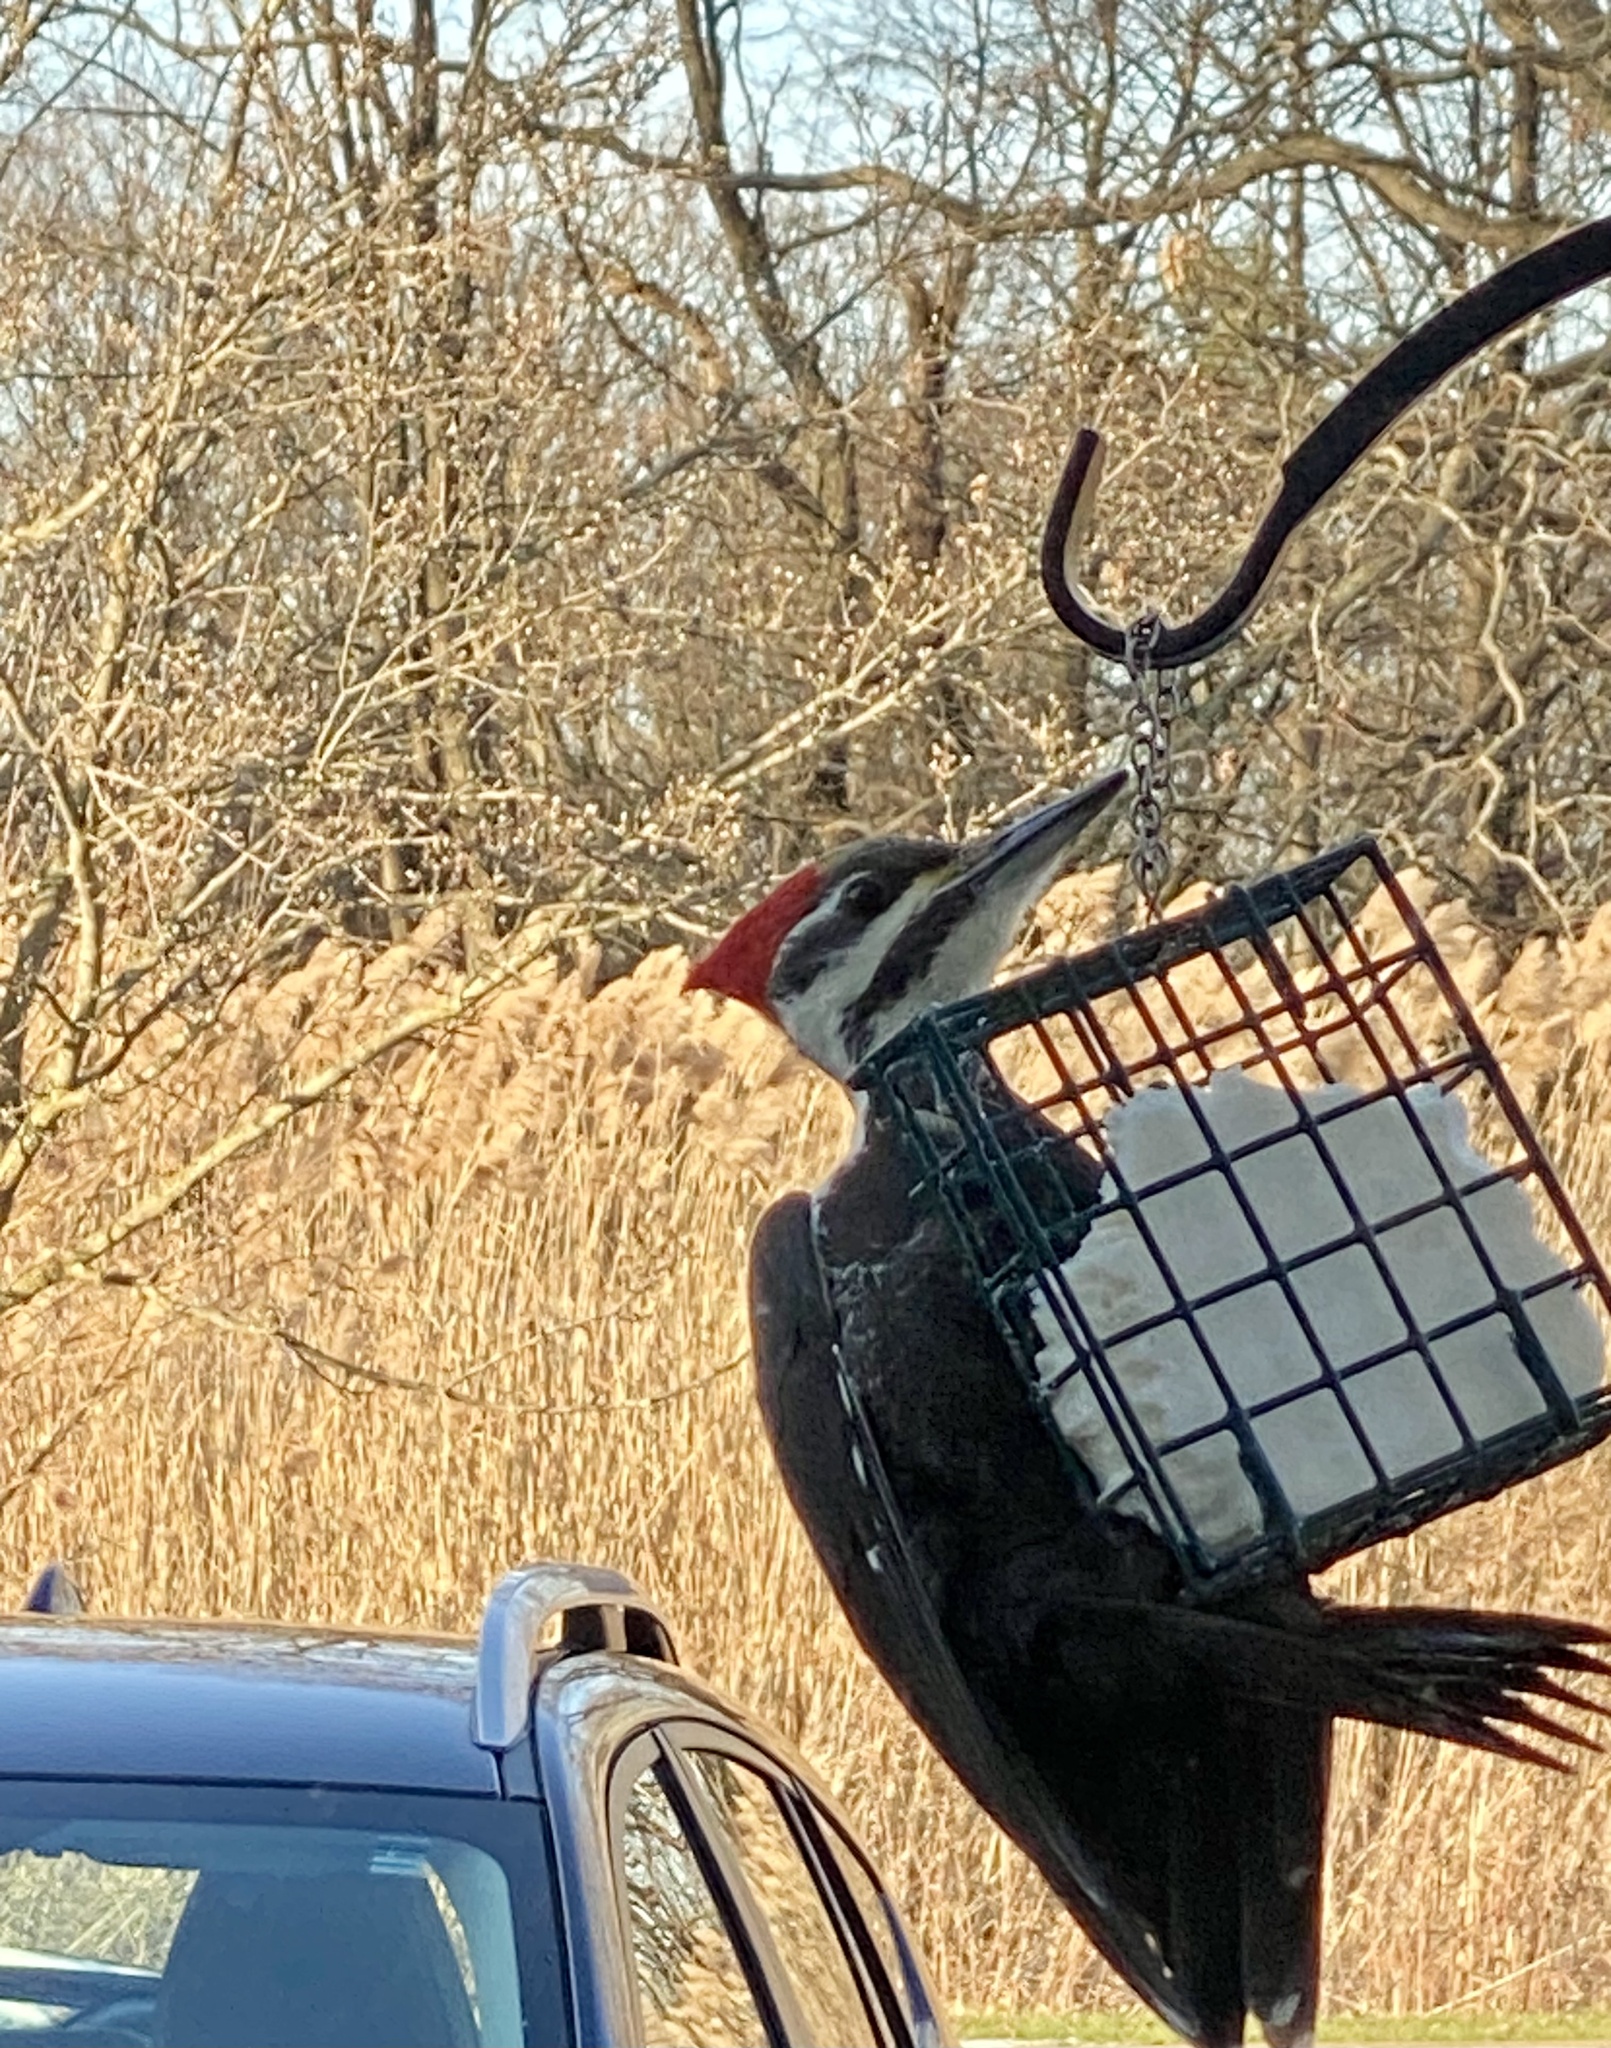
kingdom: Animalia
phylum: Chordata
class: Aves
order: Piciformes
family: Picidae
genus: Dryocopus
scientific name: Dryocopus pileatus
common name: Pileated woodpecker
